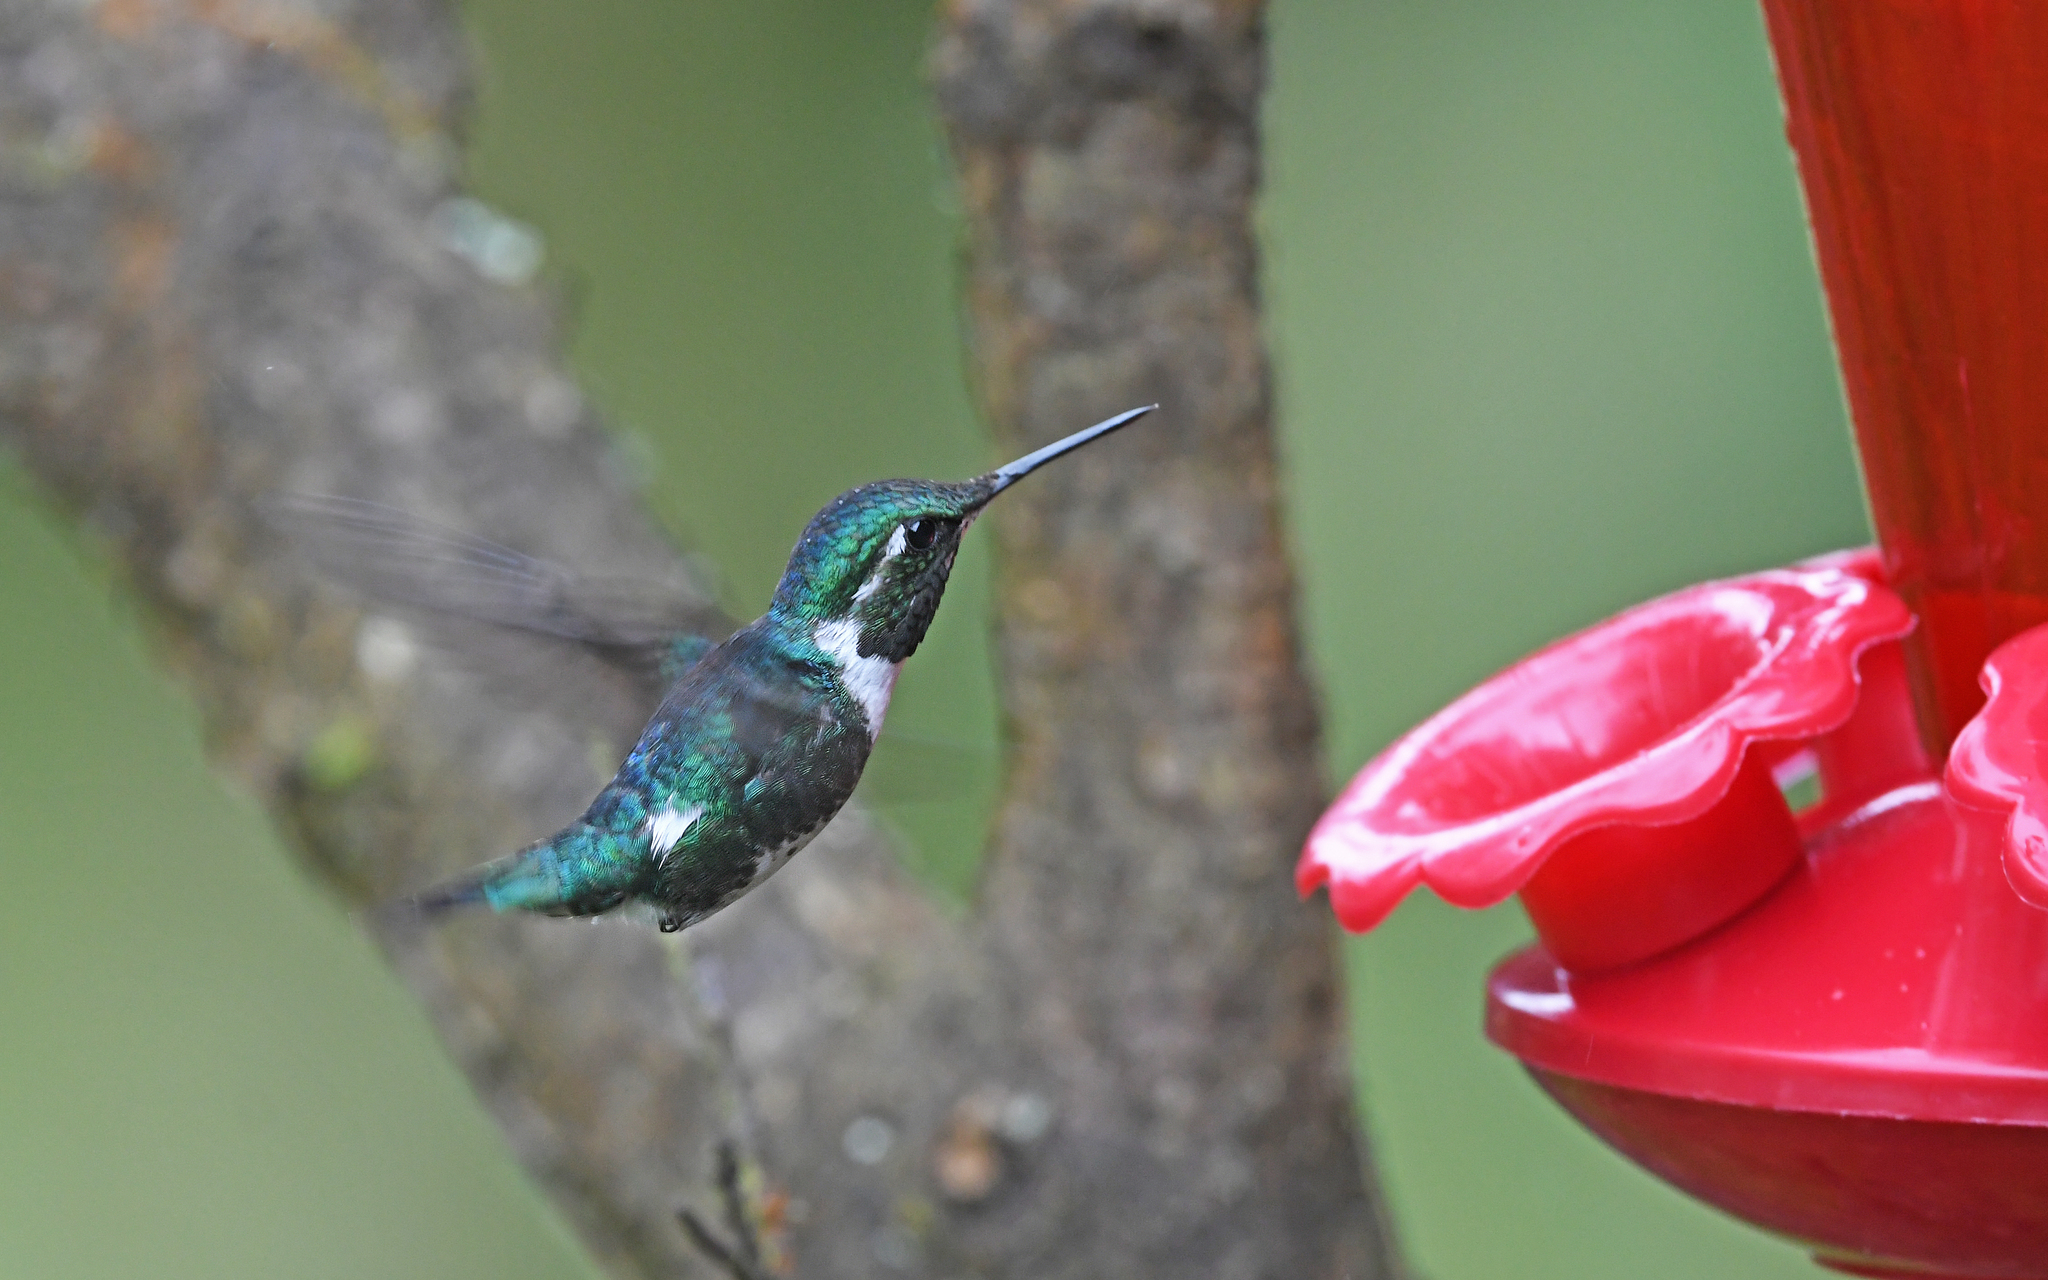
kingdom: Animalia
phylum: Chordata
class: Aves
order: Apodiformes
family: Trochilidae
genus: Chaetocercus
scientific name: Chaetocercus mulsant
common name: White-bellied woodstar
